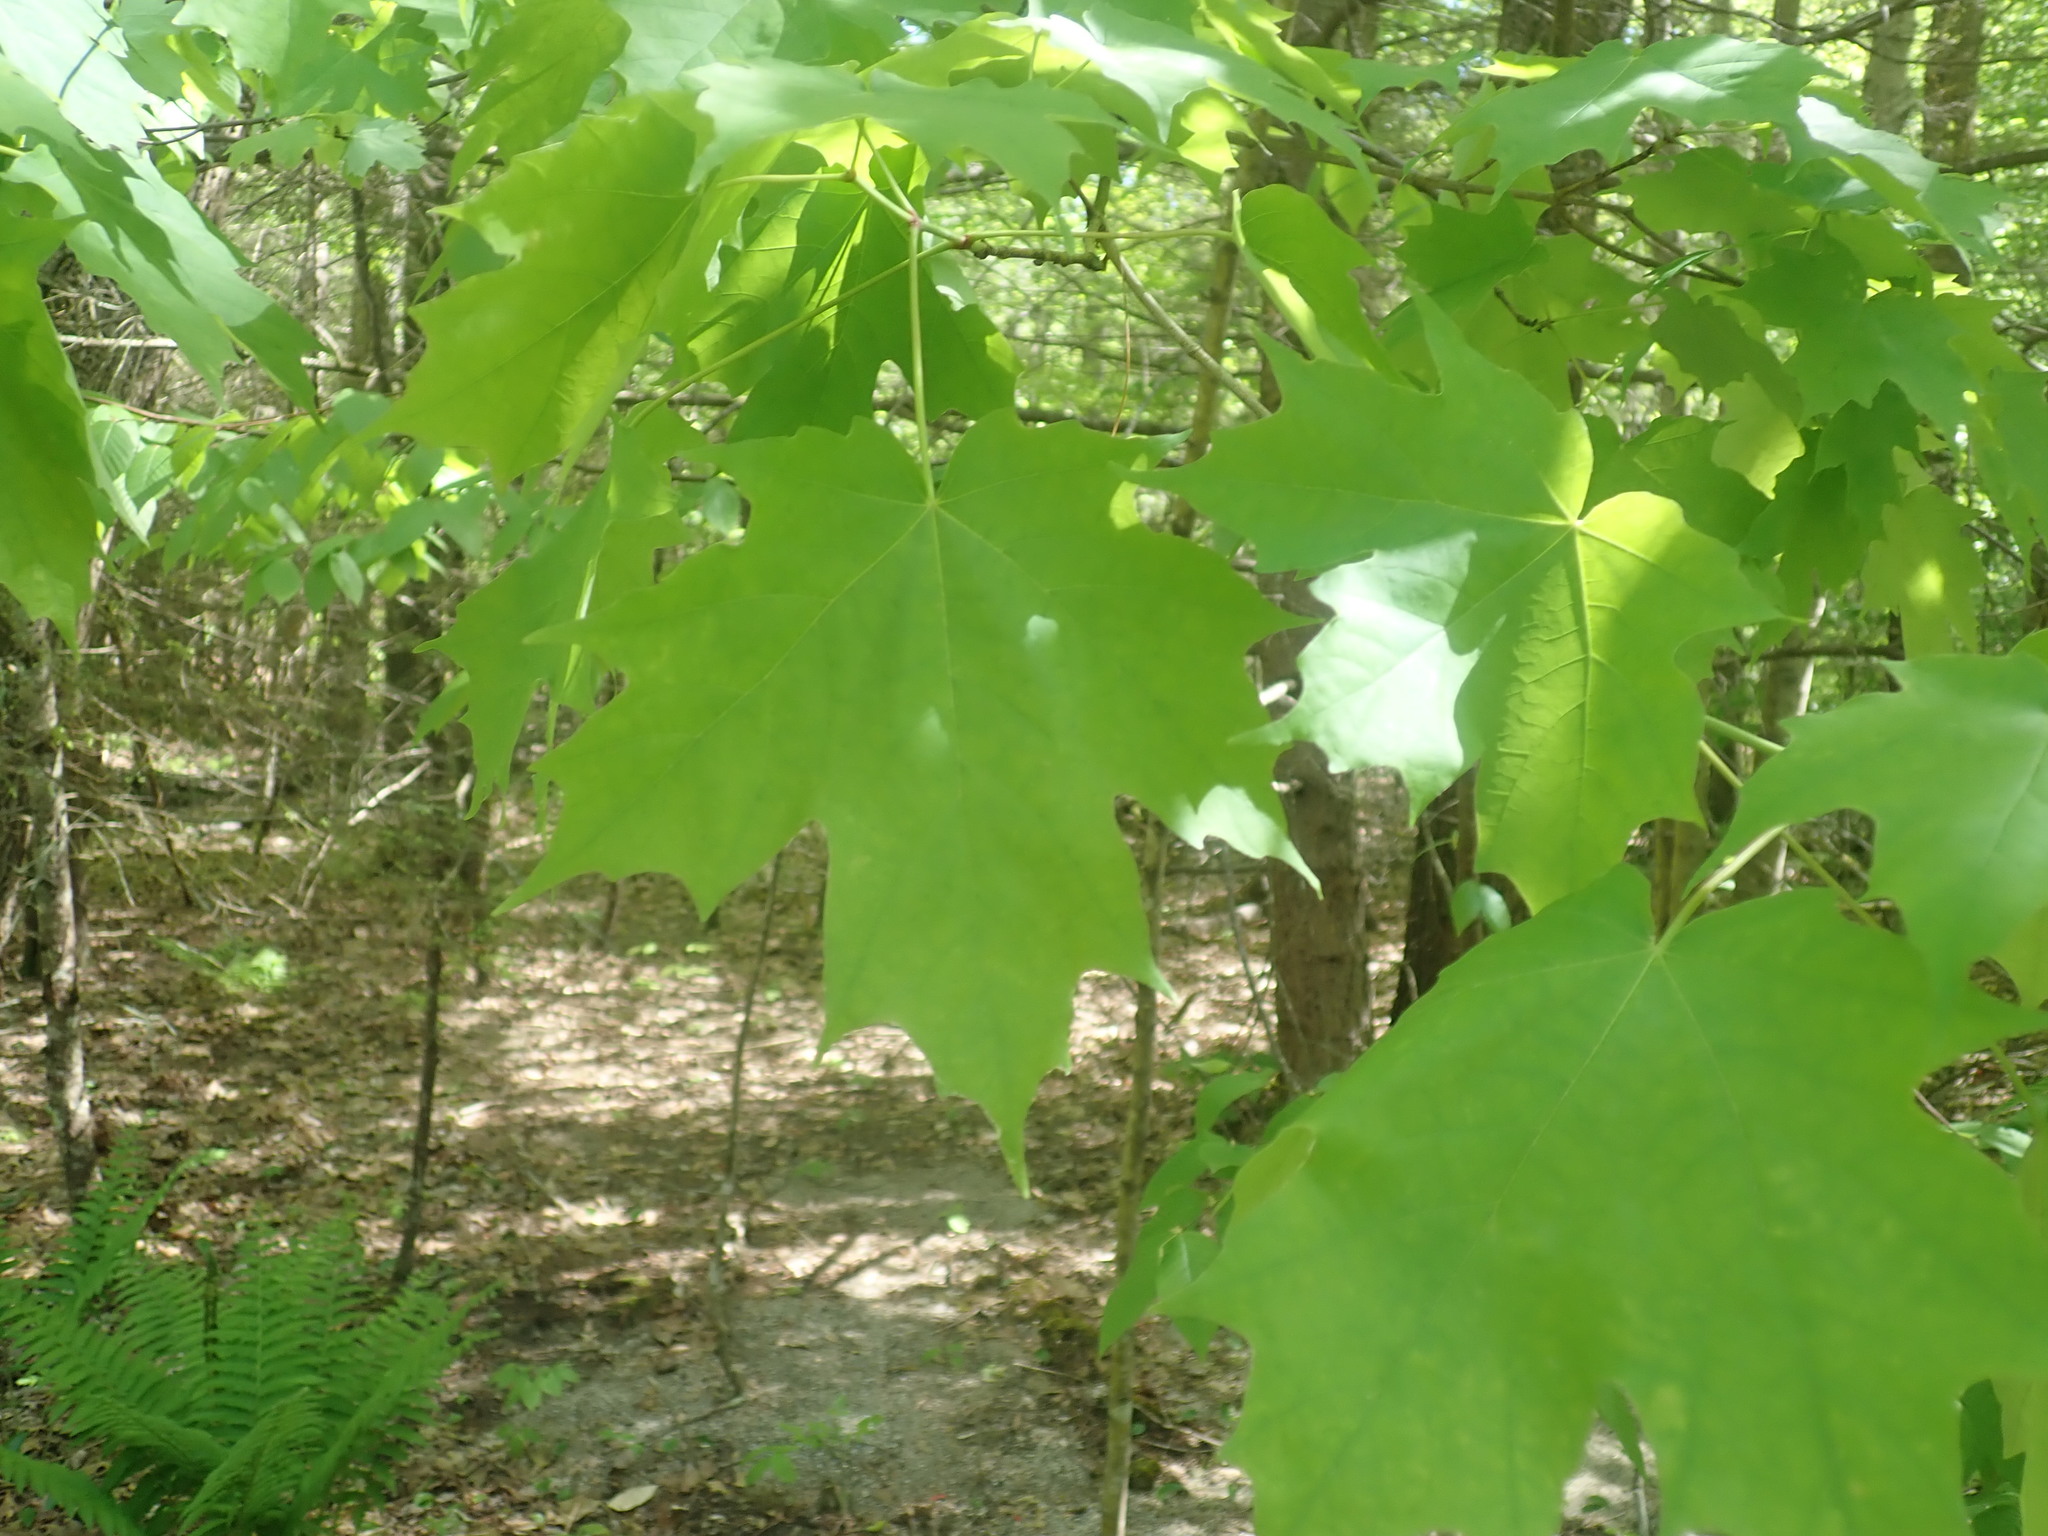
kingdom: Plantae
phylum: Tracheophyta
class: Magnoliopsida
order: Sapindales
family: Sapindaceae
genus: Acer
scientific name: Acer saccharum
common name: Sugar maple
